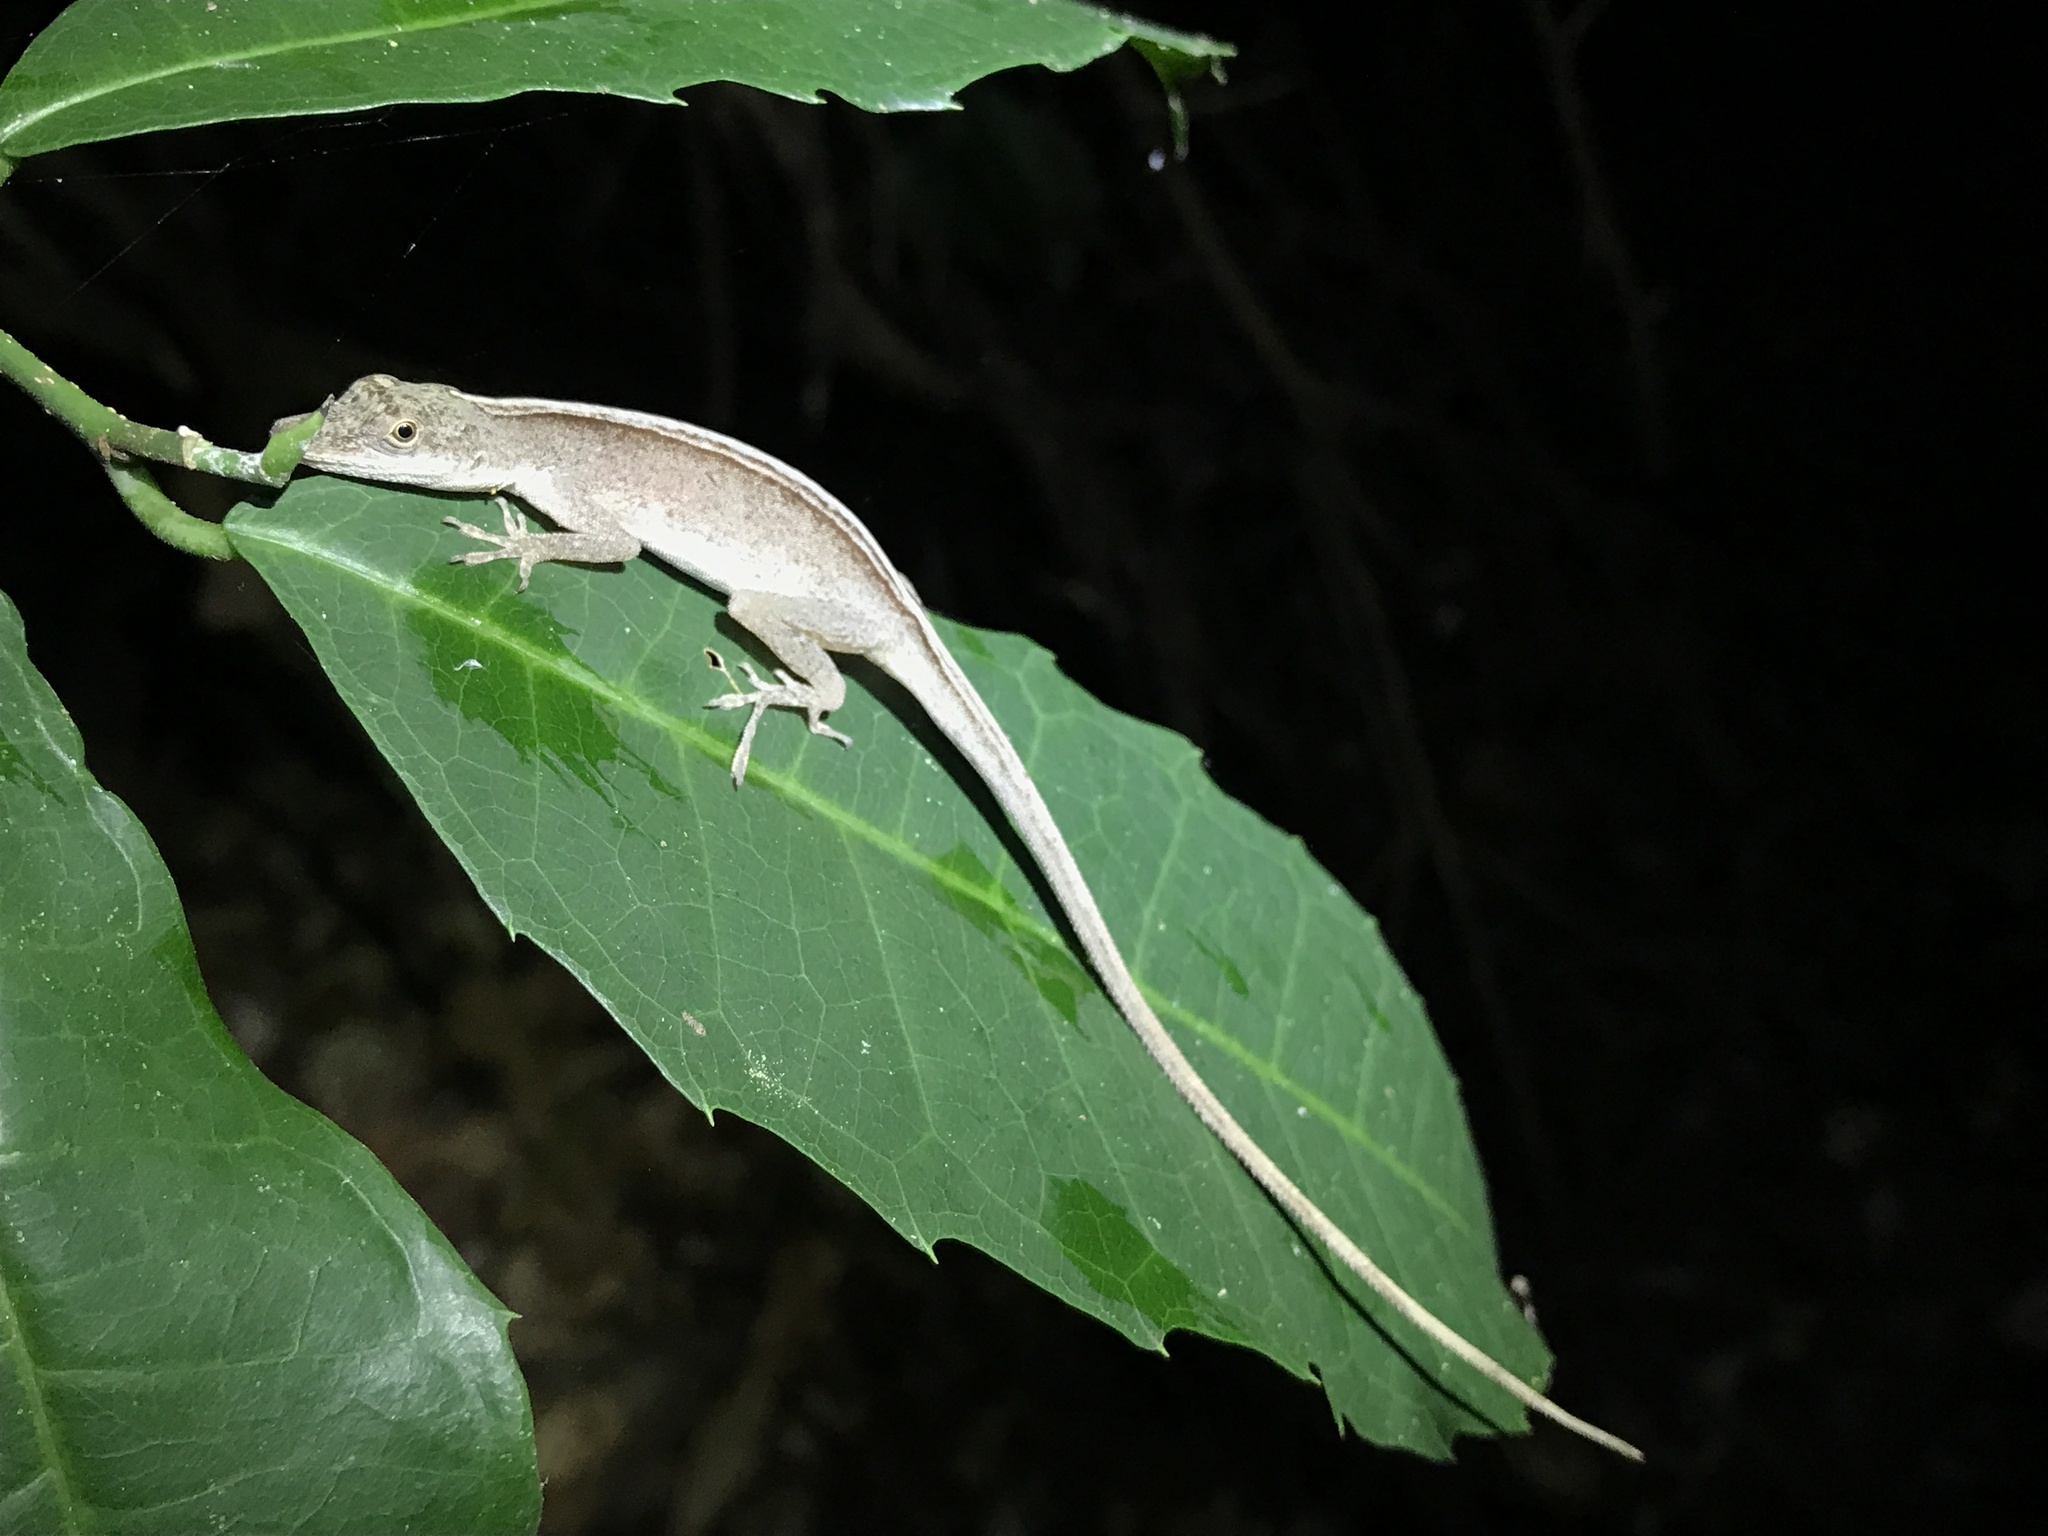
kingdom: Animalia
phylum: Chordata
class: Squamata
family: Dactyloidae
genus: Anolis
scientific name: Anolis fuscoauratus
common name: Brown-eared anole
